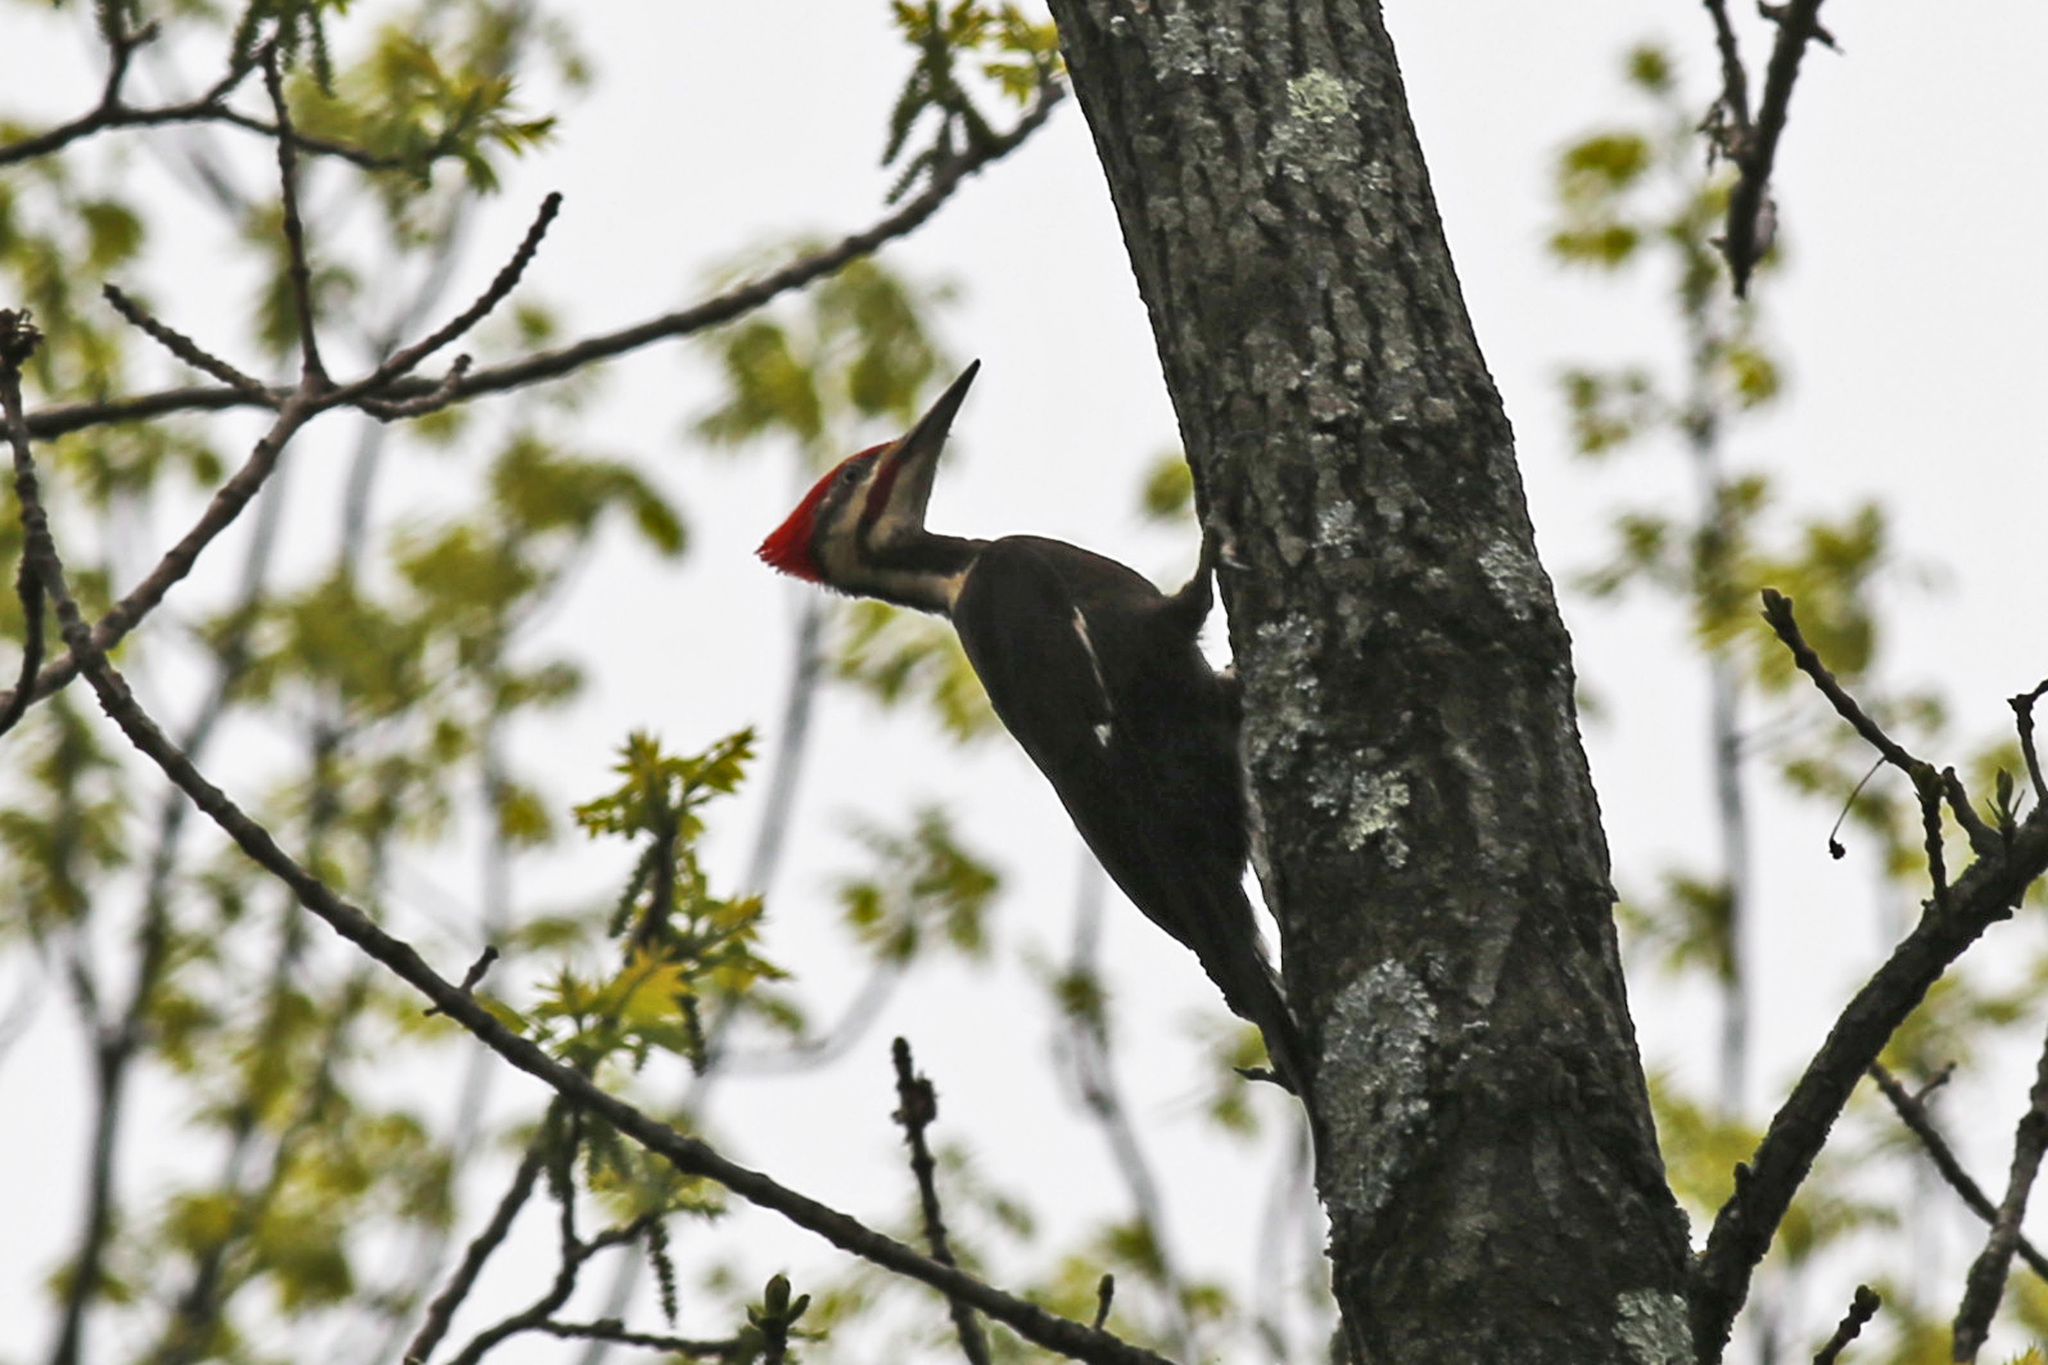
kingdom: Animalia
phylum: Chordata
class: Aves
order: Piciformes
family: Picidae
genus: Dryocopus
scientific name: Dryocopus pileatus
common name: Pileated woodpecker
